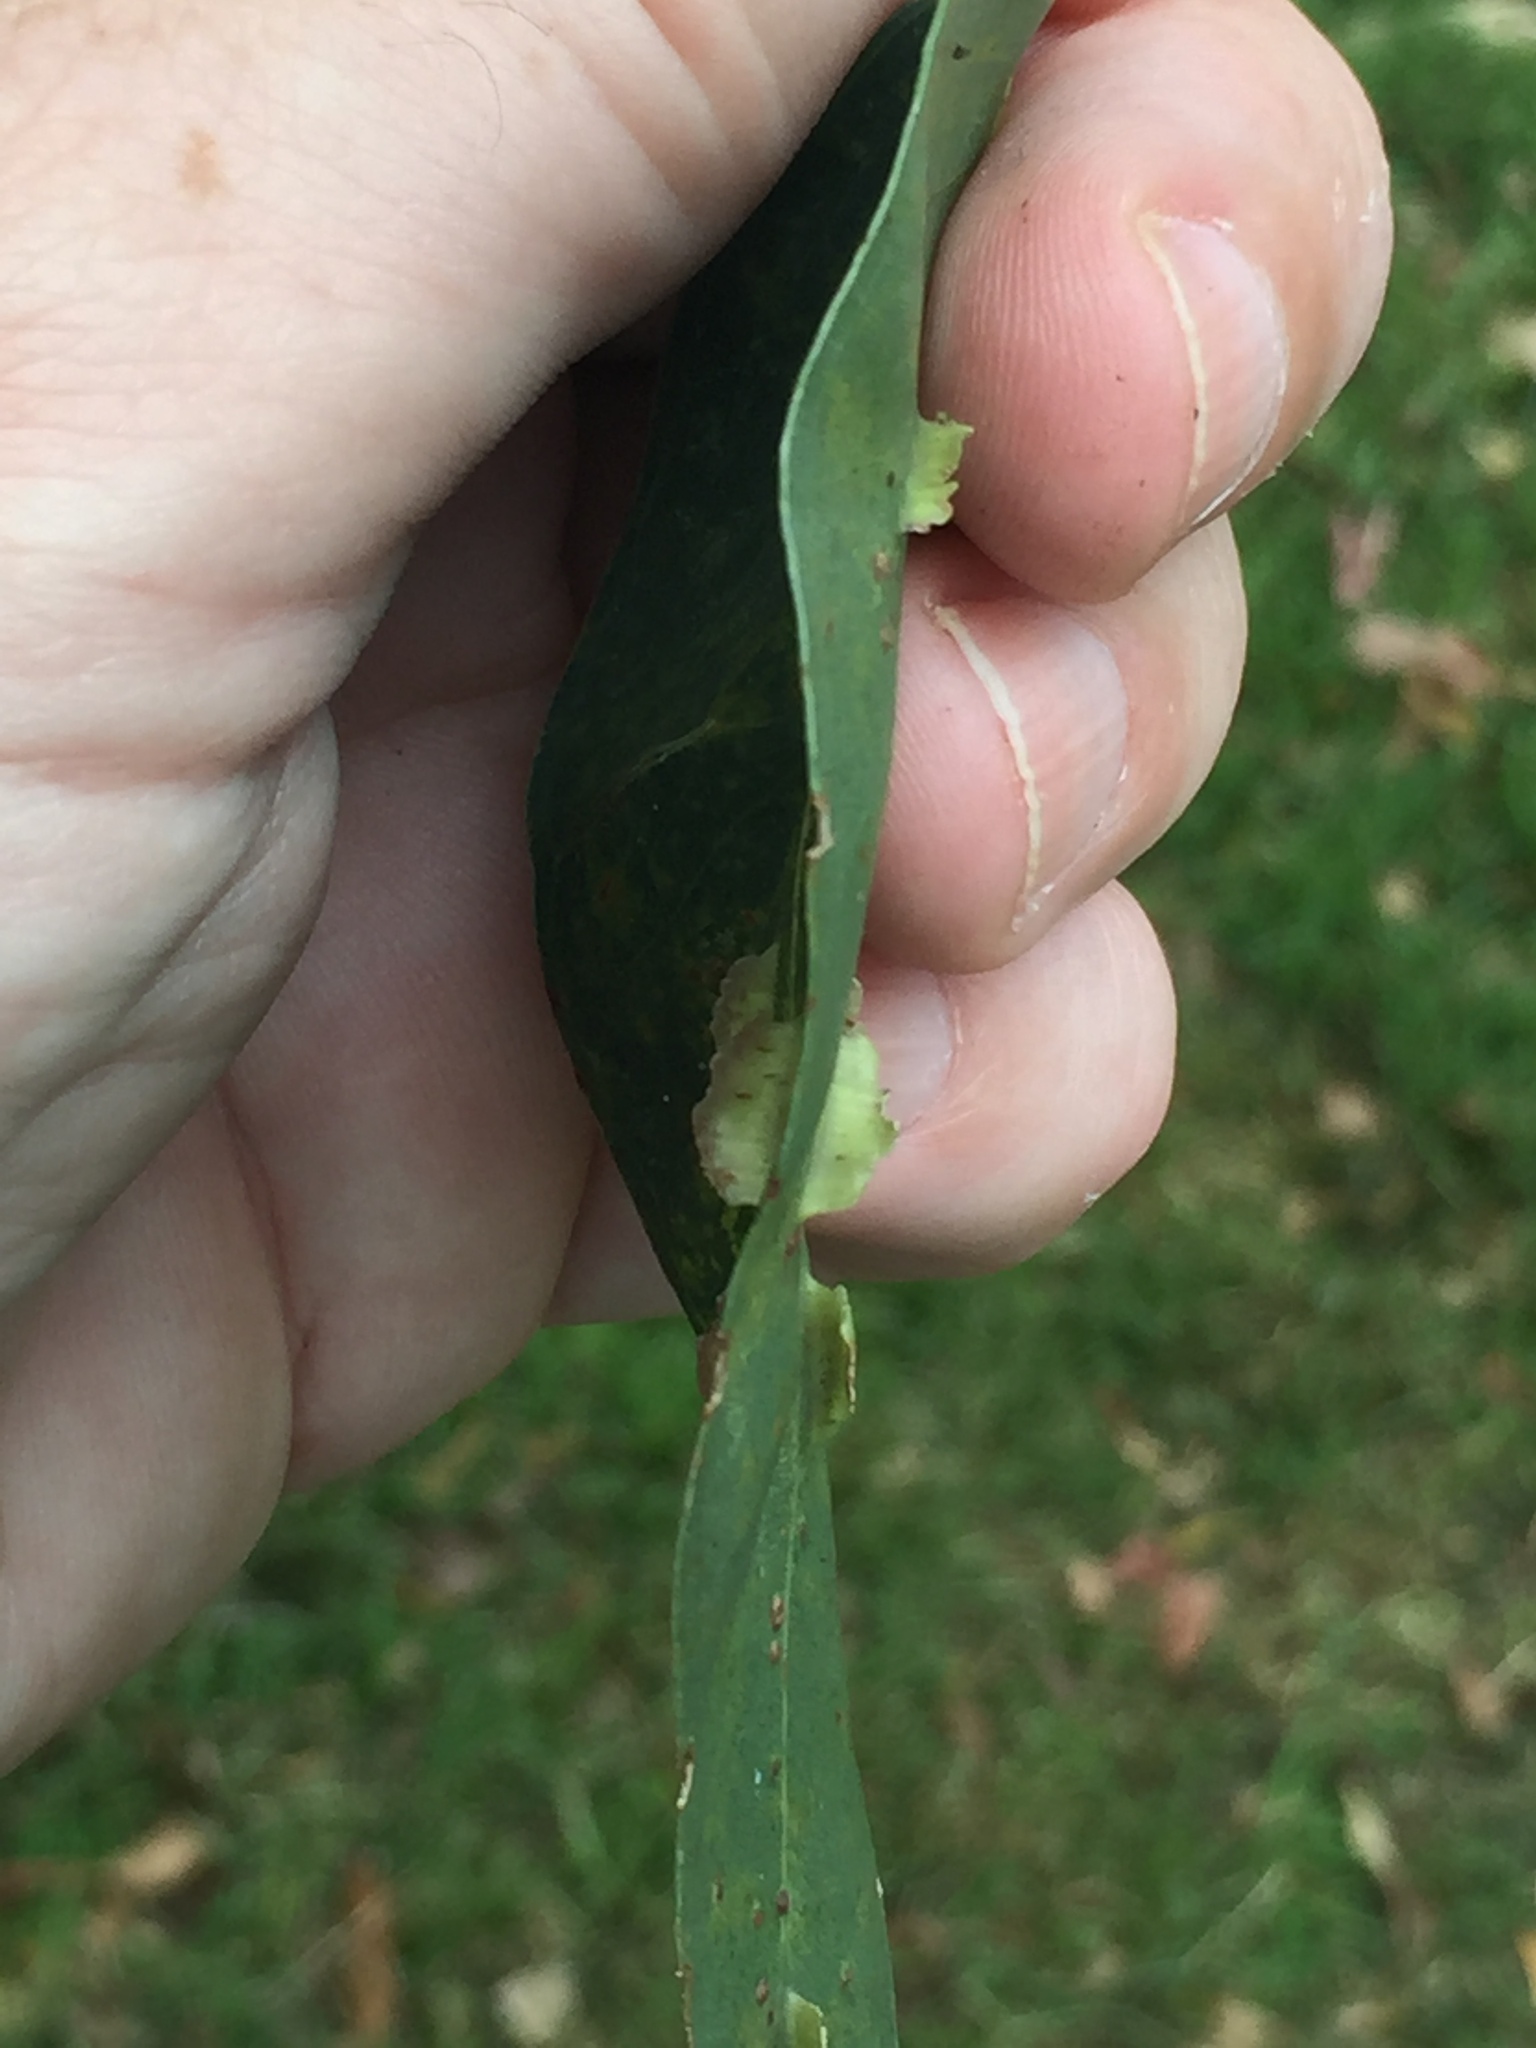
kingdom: Animalia
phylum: Arthropoda
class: Insecta
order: Hymenoptera
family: Pteromalidae
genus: Nambouria
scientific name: Nambouria xanthops
